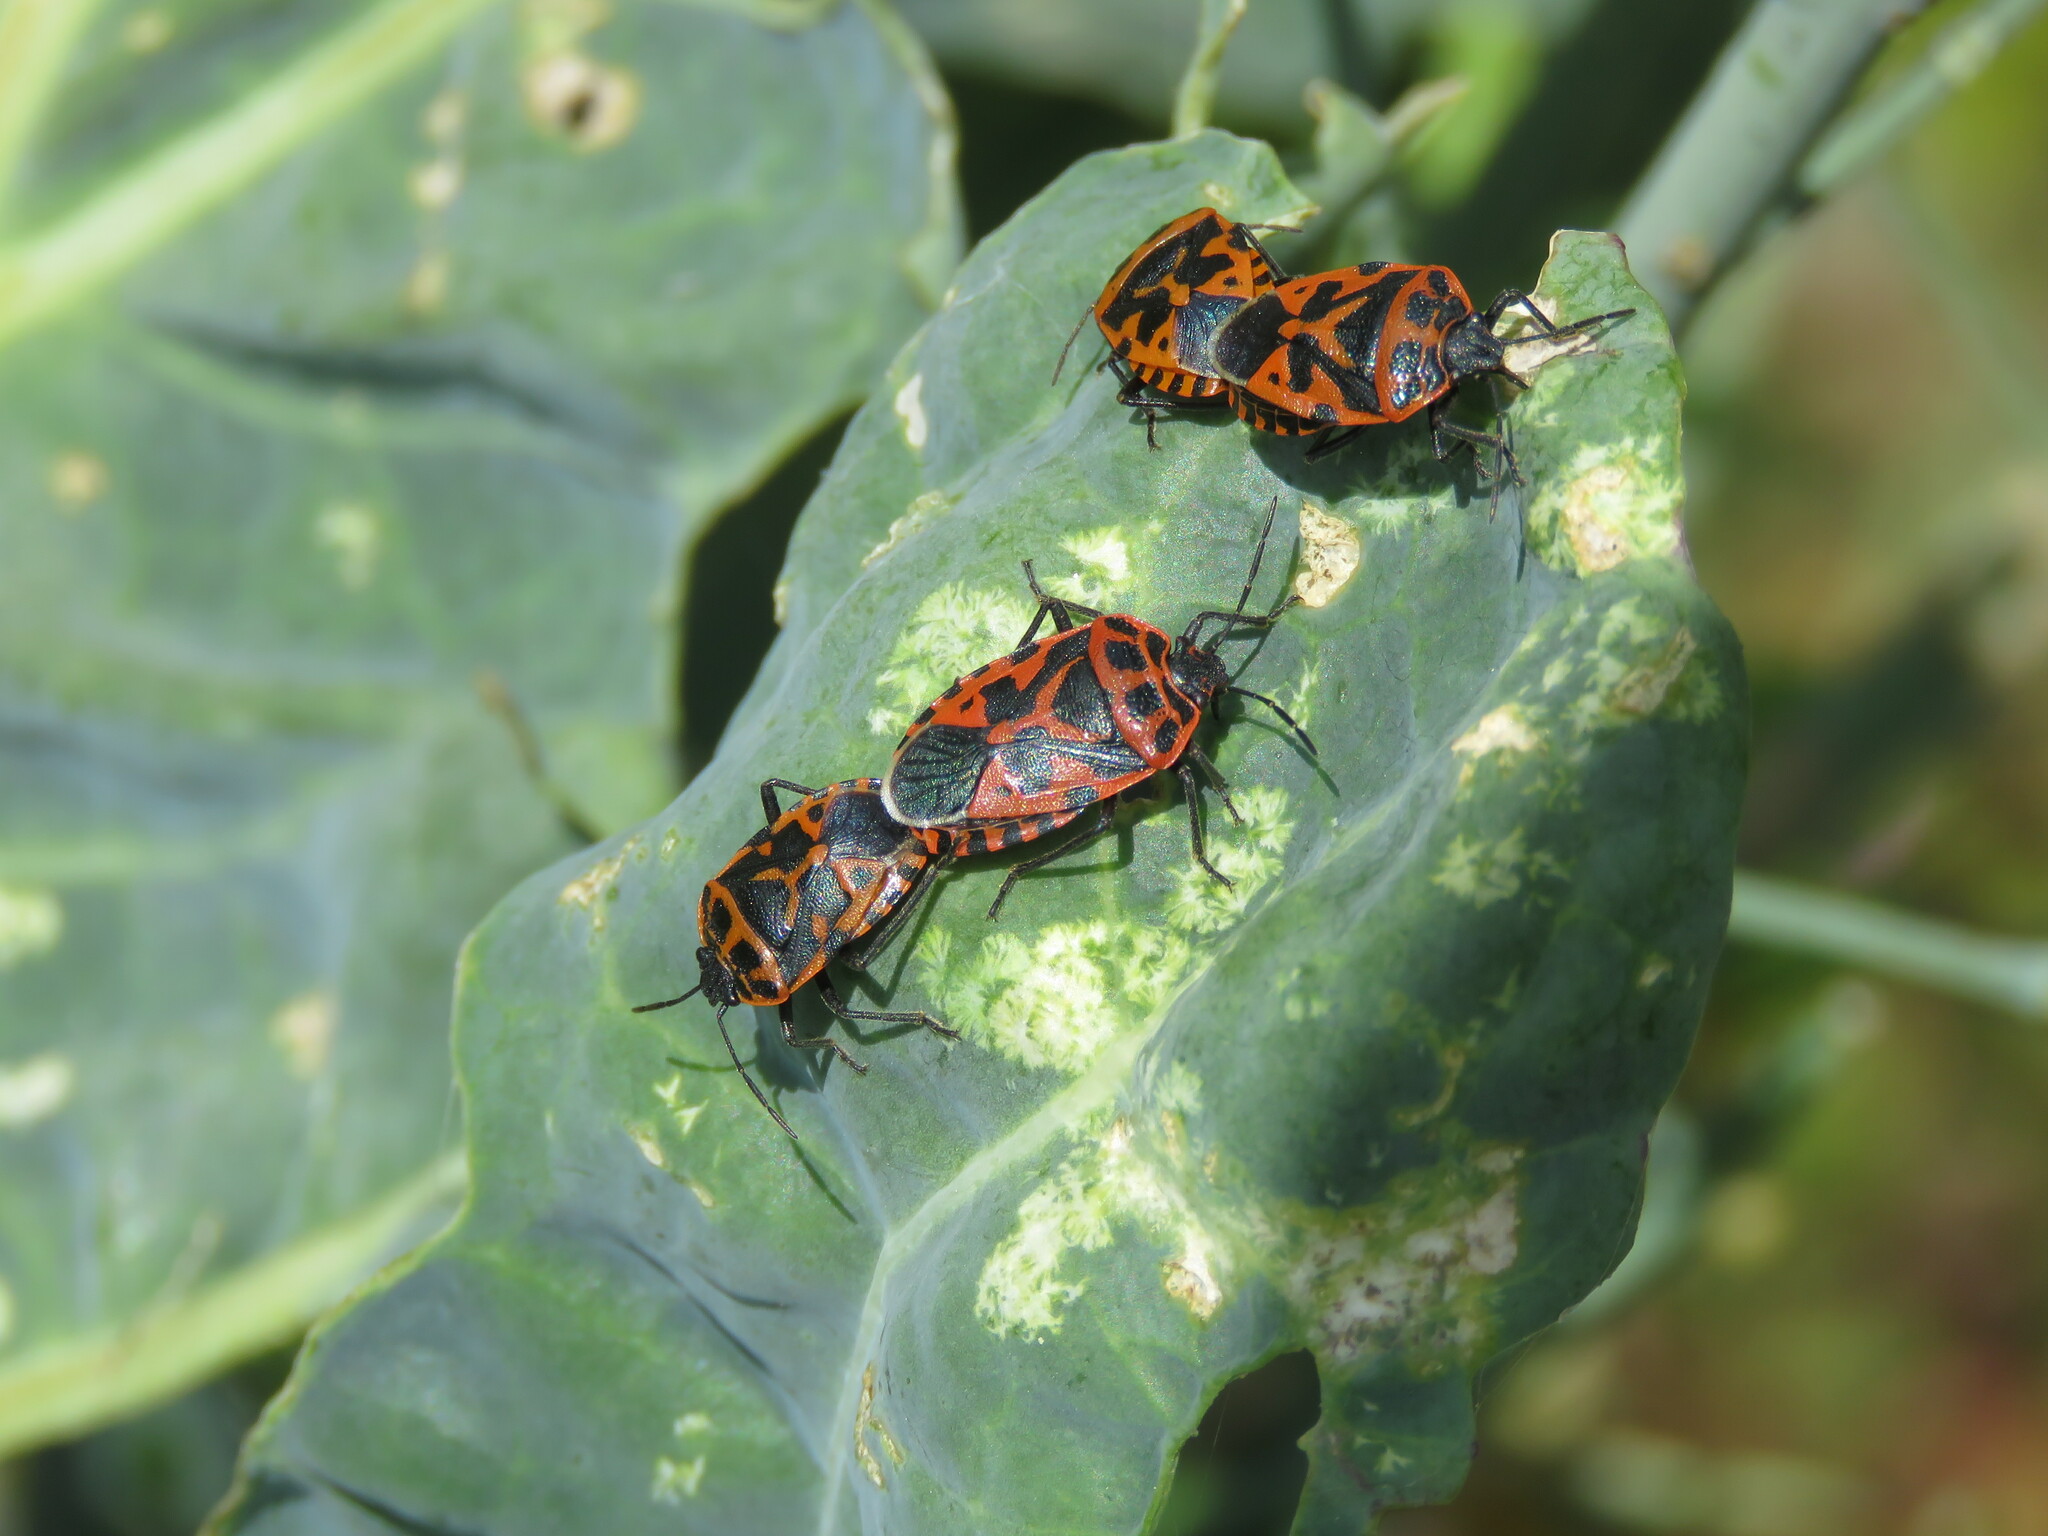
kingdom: Animalia
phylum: Arthropoda
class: Insecta
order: Hemiptera
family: Pentatomidae
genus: Eurydema
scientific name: Eurydema ventralis
